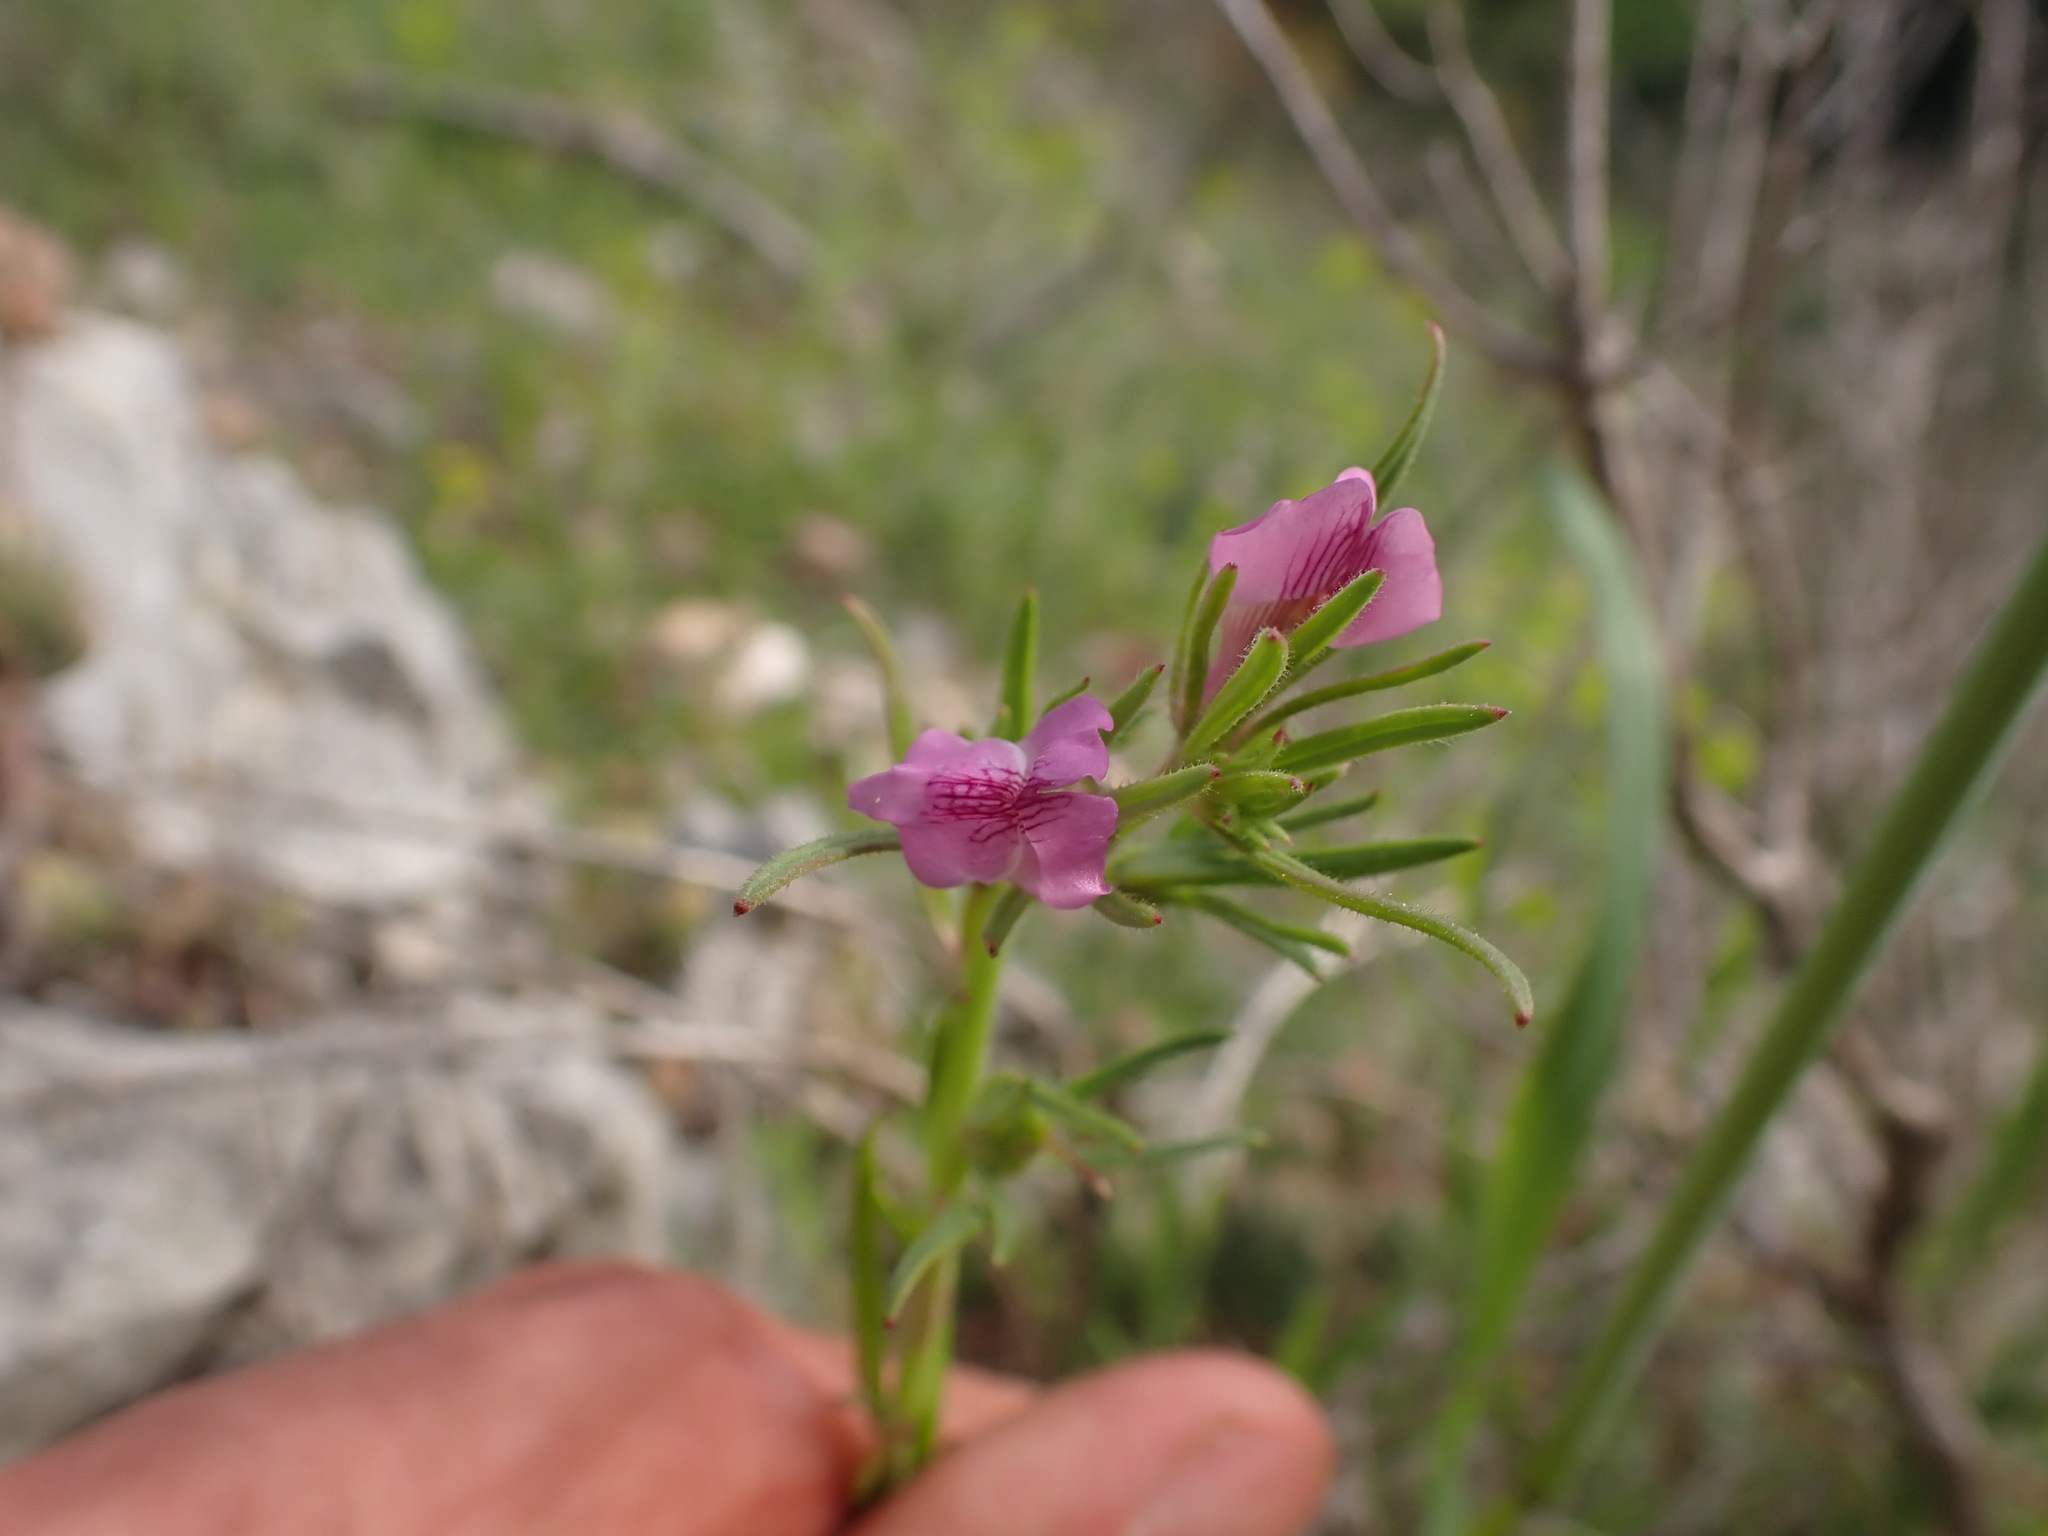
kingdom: Plantae
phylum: Tracheophyta
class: Magnoliopsida
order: Lamiales
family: Plantaginaceae
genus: Misopates
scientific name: Misopates orontium
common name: Weasel's-snout
